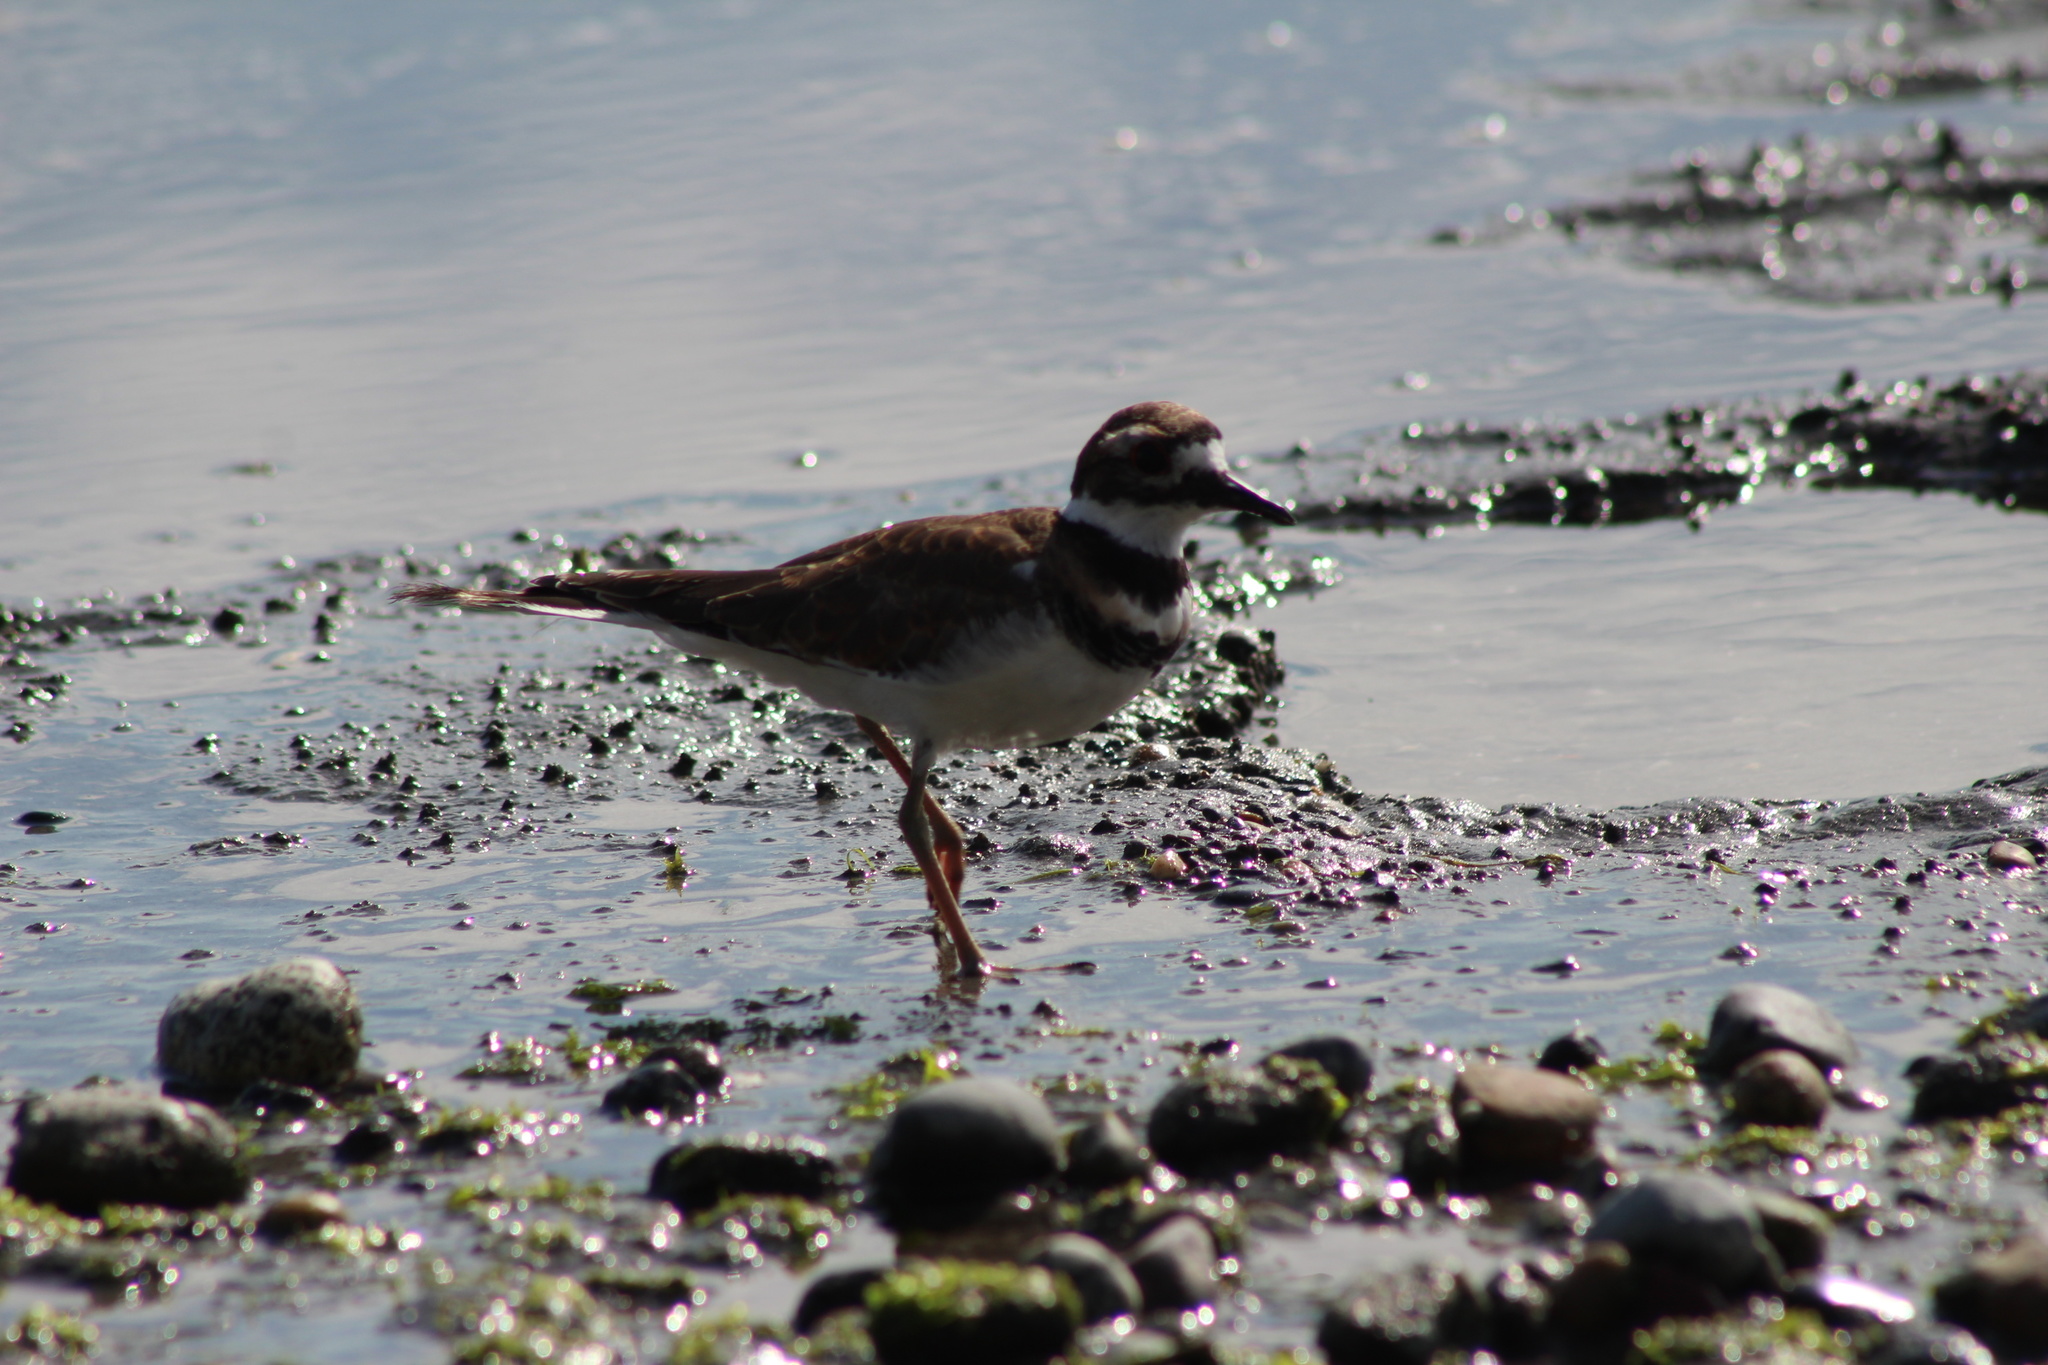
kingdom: Animalia
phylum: Chordata
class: Aves
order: Charadriiformes
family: Charadriidae
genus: Charadrius
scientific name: Charadrius vociferus
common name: Killdeer
